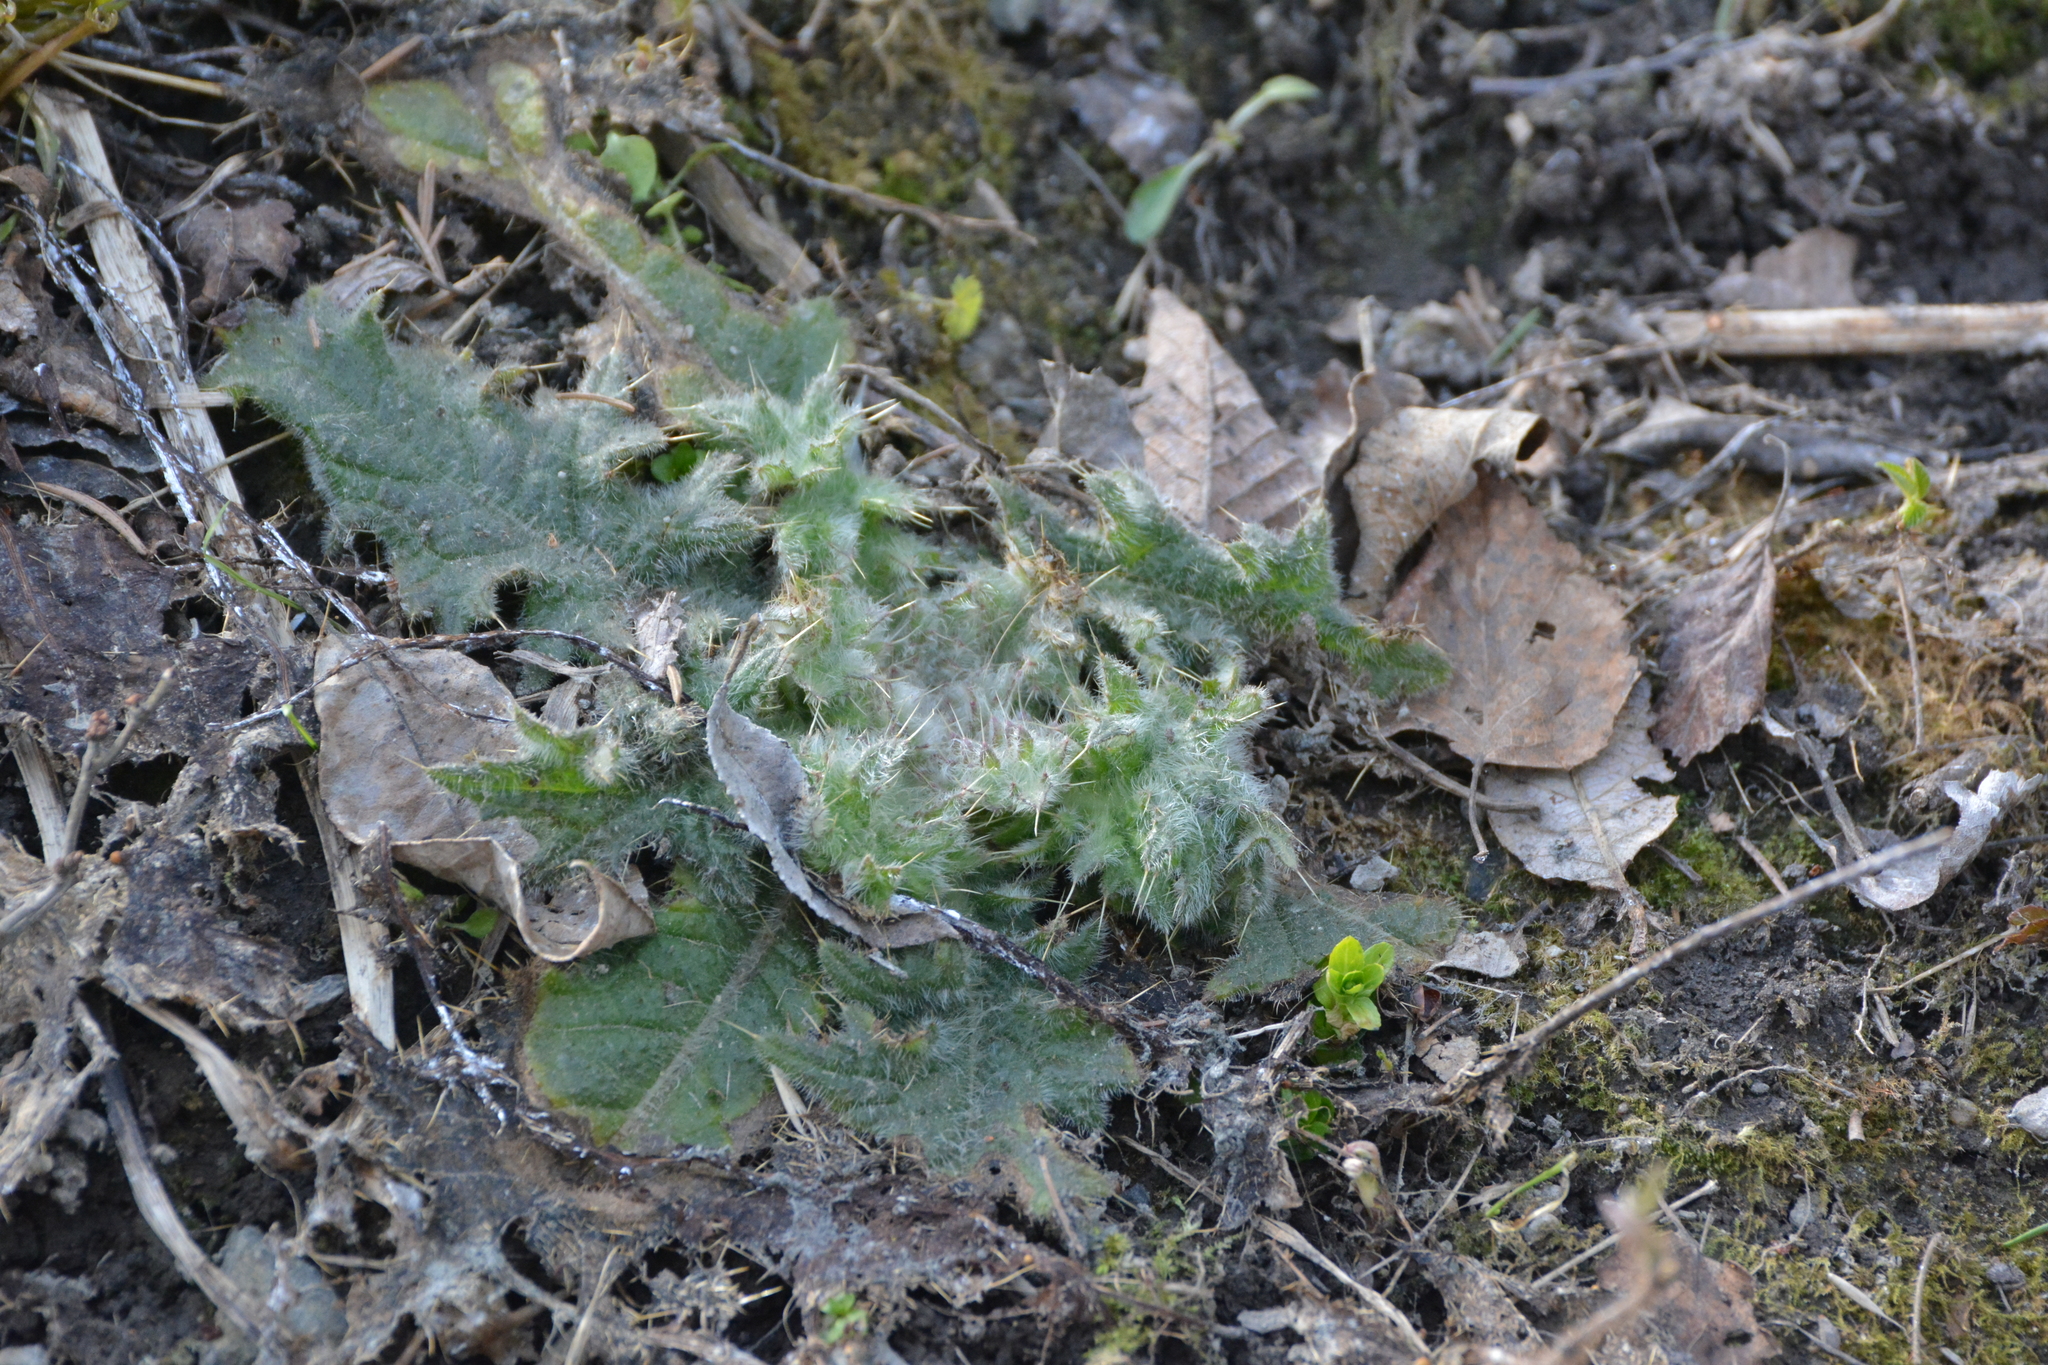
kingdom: Plantae
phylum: Tracheophyta
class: Magnoliopsida
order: Asterales
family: Asteraceae
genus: Cirsium
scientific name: Cirsium vulgare
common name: Bull thistle
